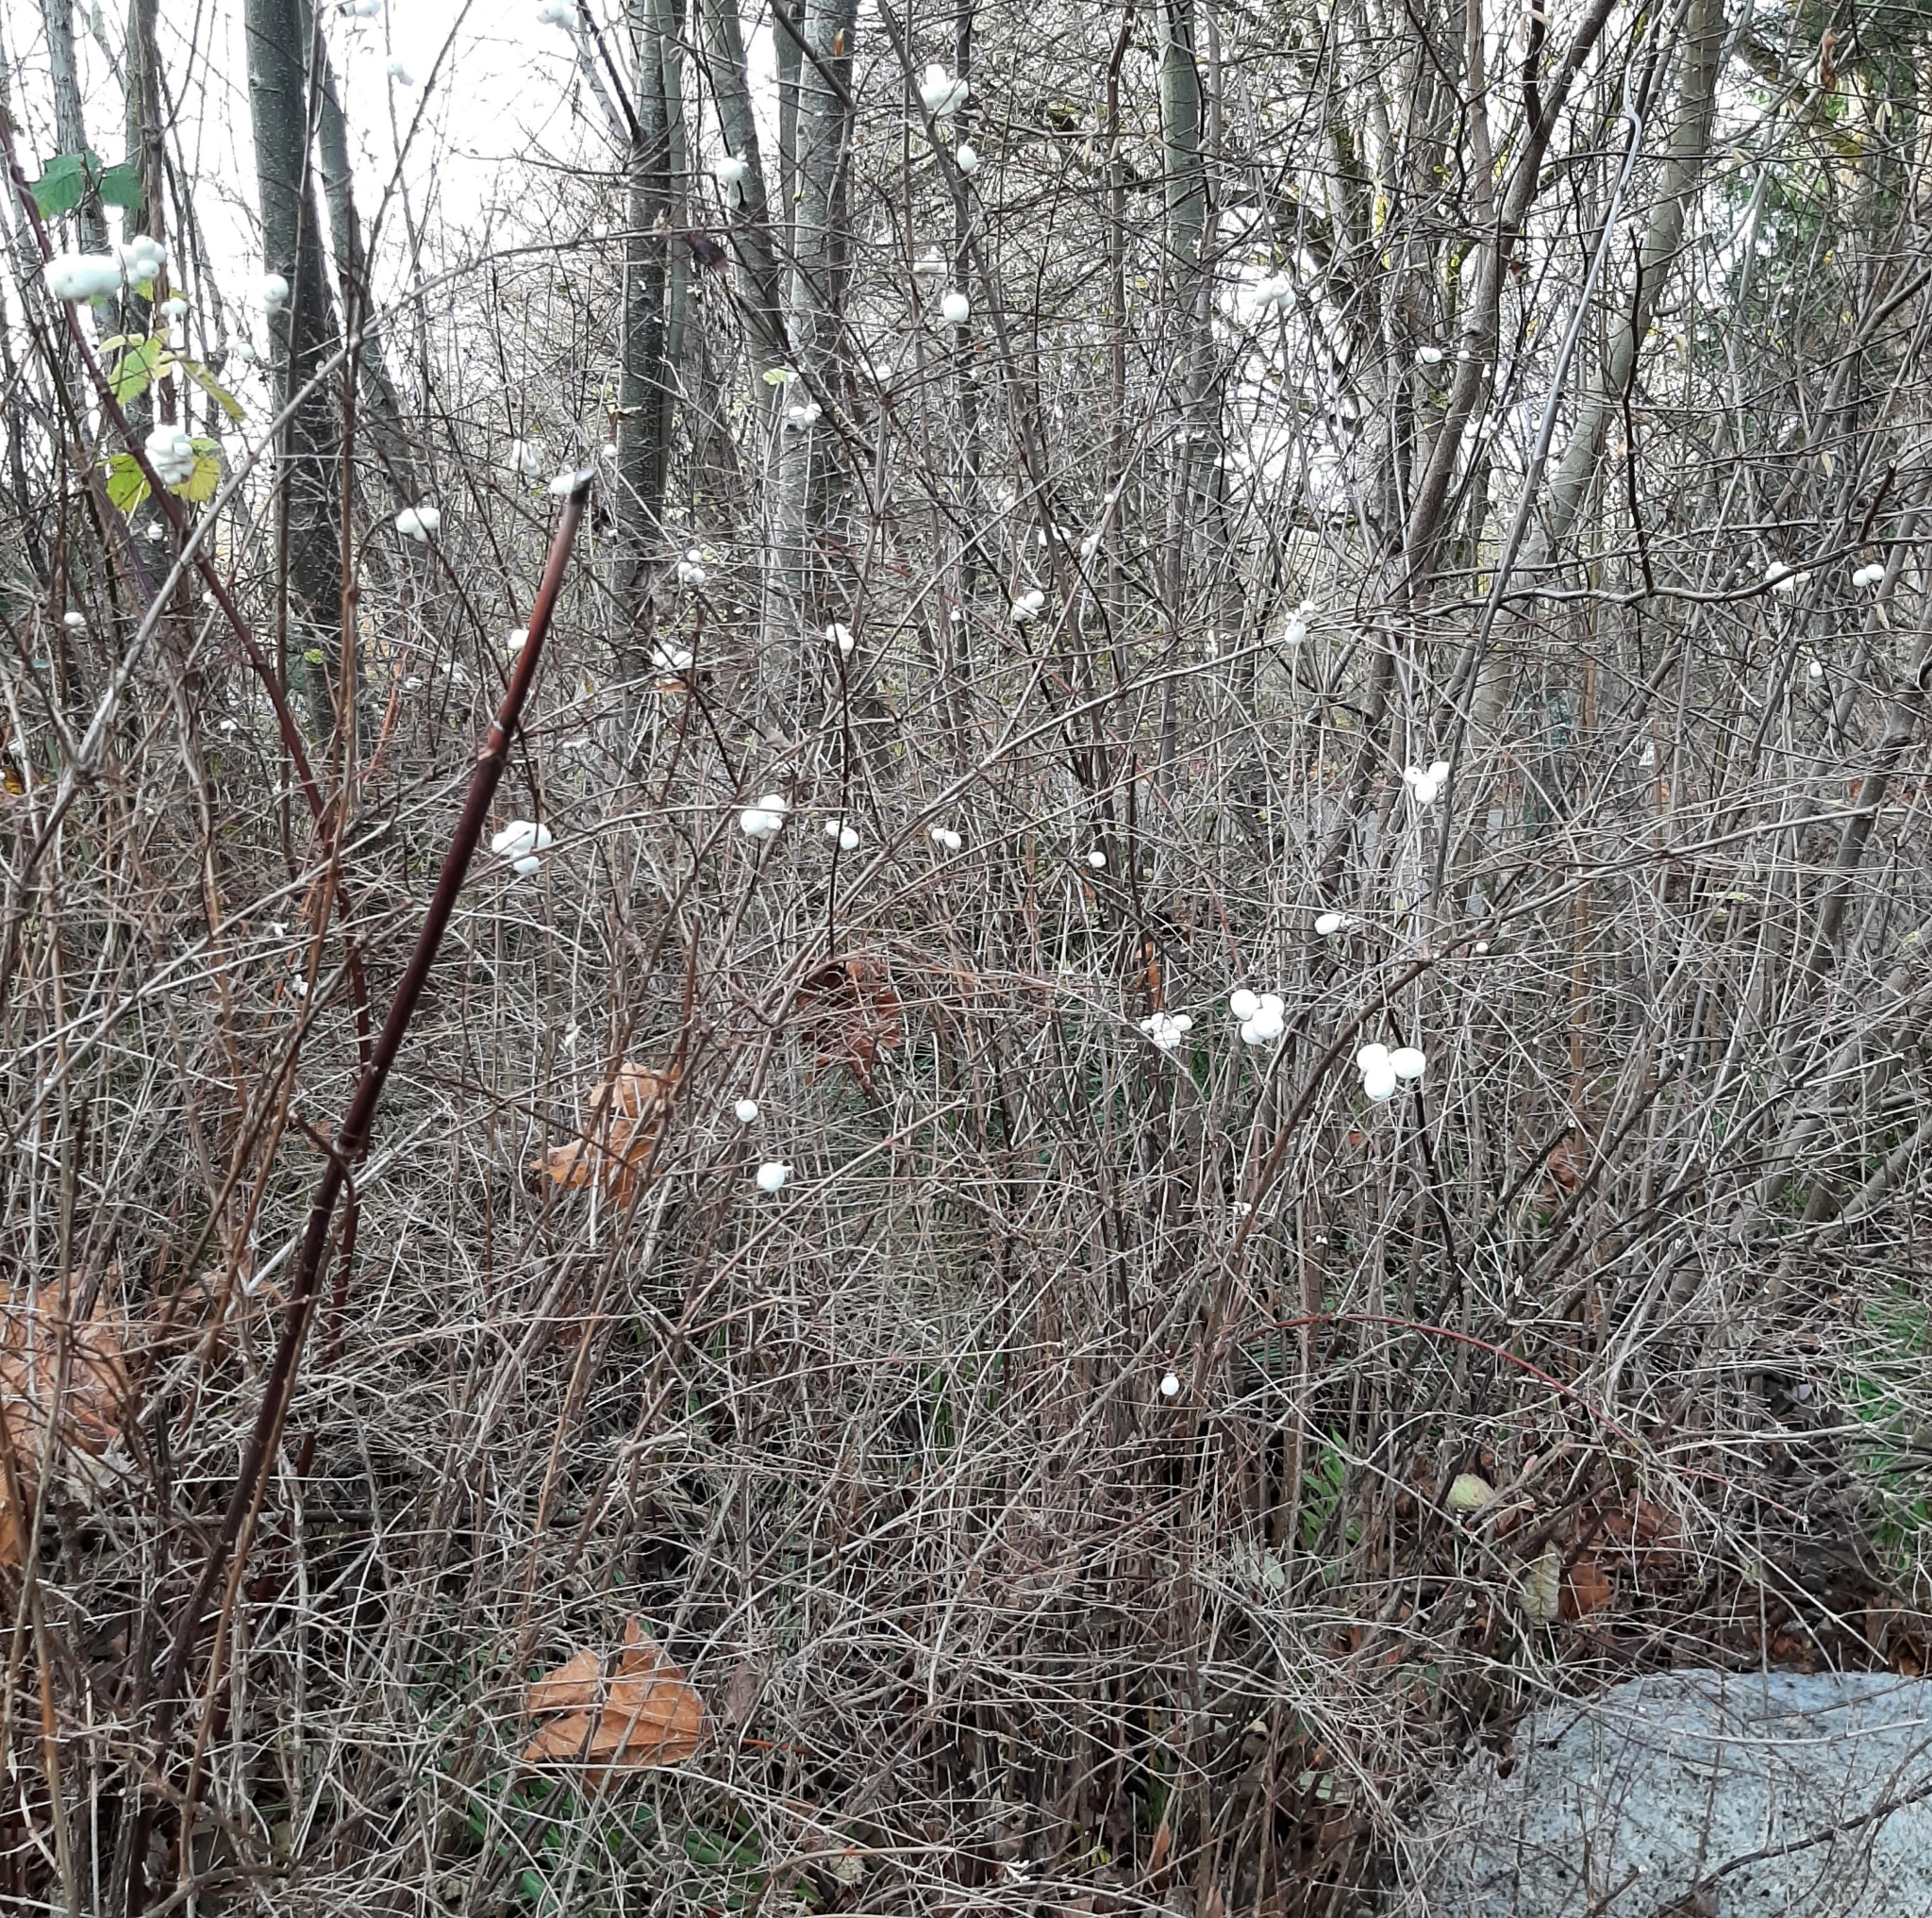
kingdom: Plantae
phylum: Tracheophyta
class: Magnoliopsida
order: Dipsacales
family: Caprifoliaceae
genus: Symphoricarpos
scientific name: Symphoricarpos albus
